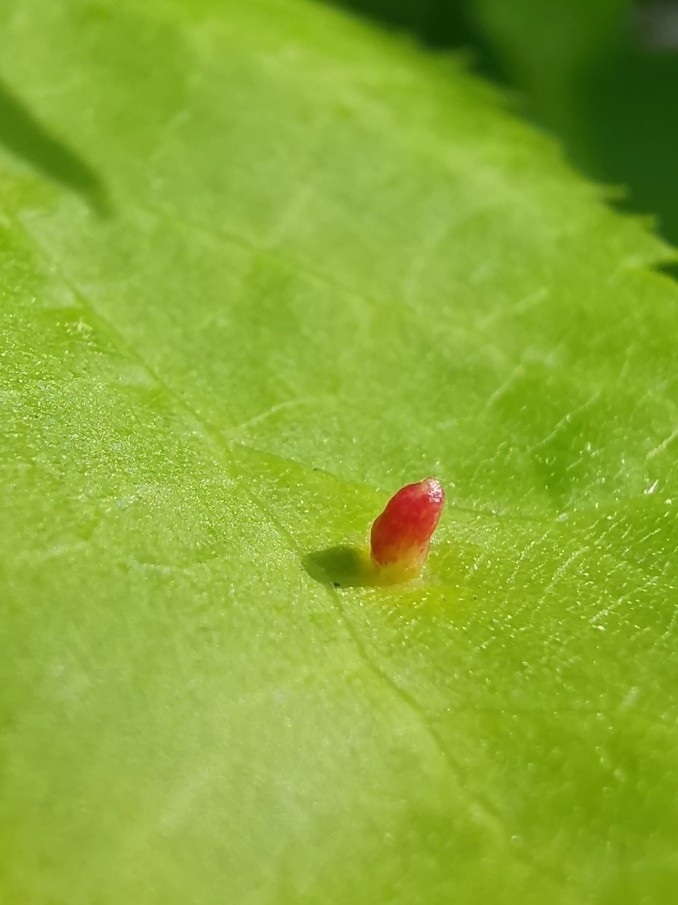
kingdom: Animalia
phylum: Arthropoda
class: Arachnida
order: Trombidiformes
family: Eriophyidae
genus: Eriophyes
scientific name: Eriophyes tiliae
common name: Red nail gall mite
